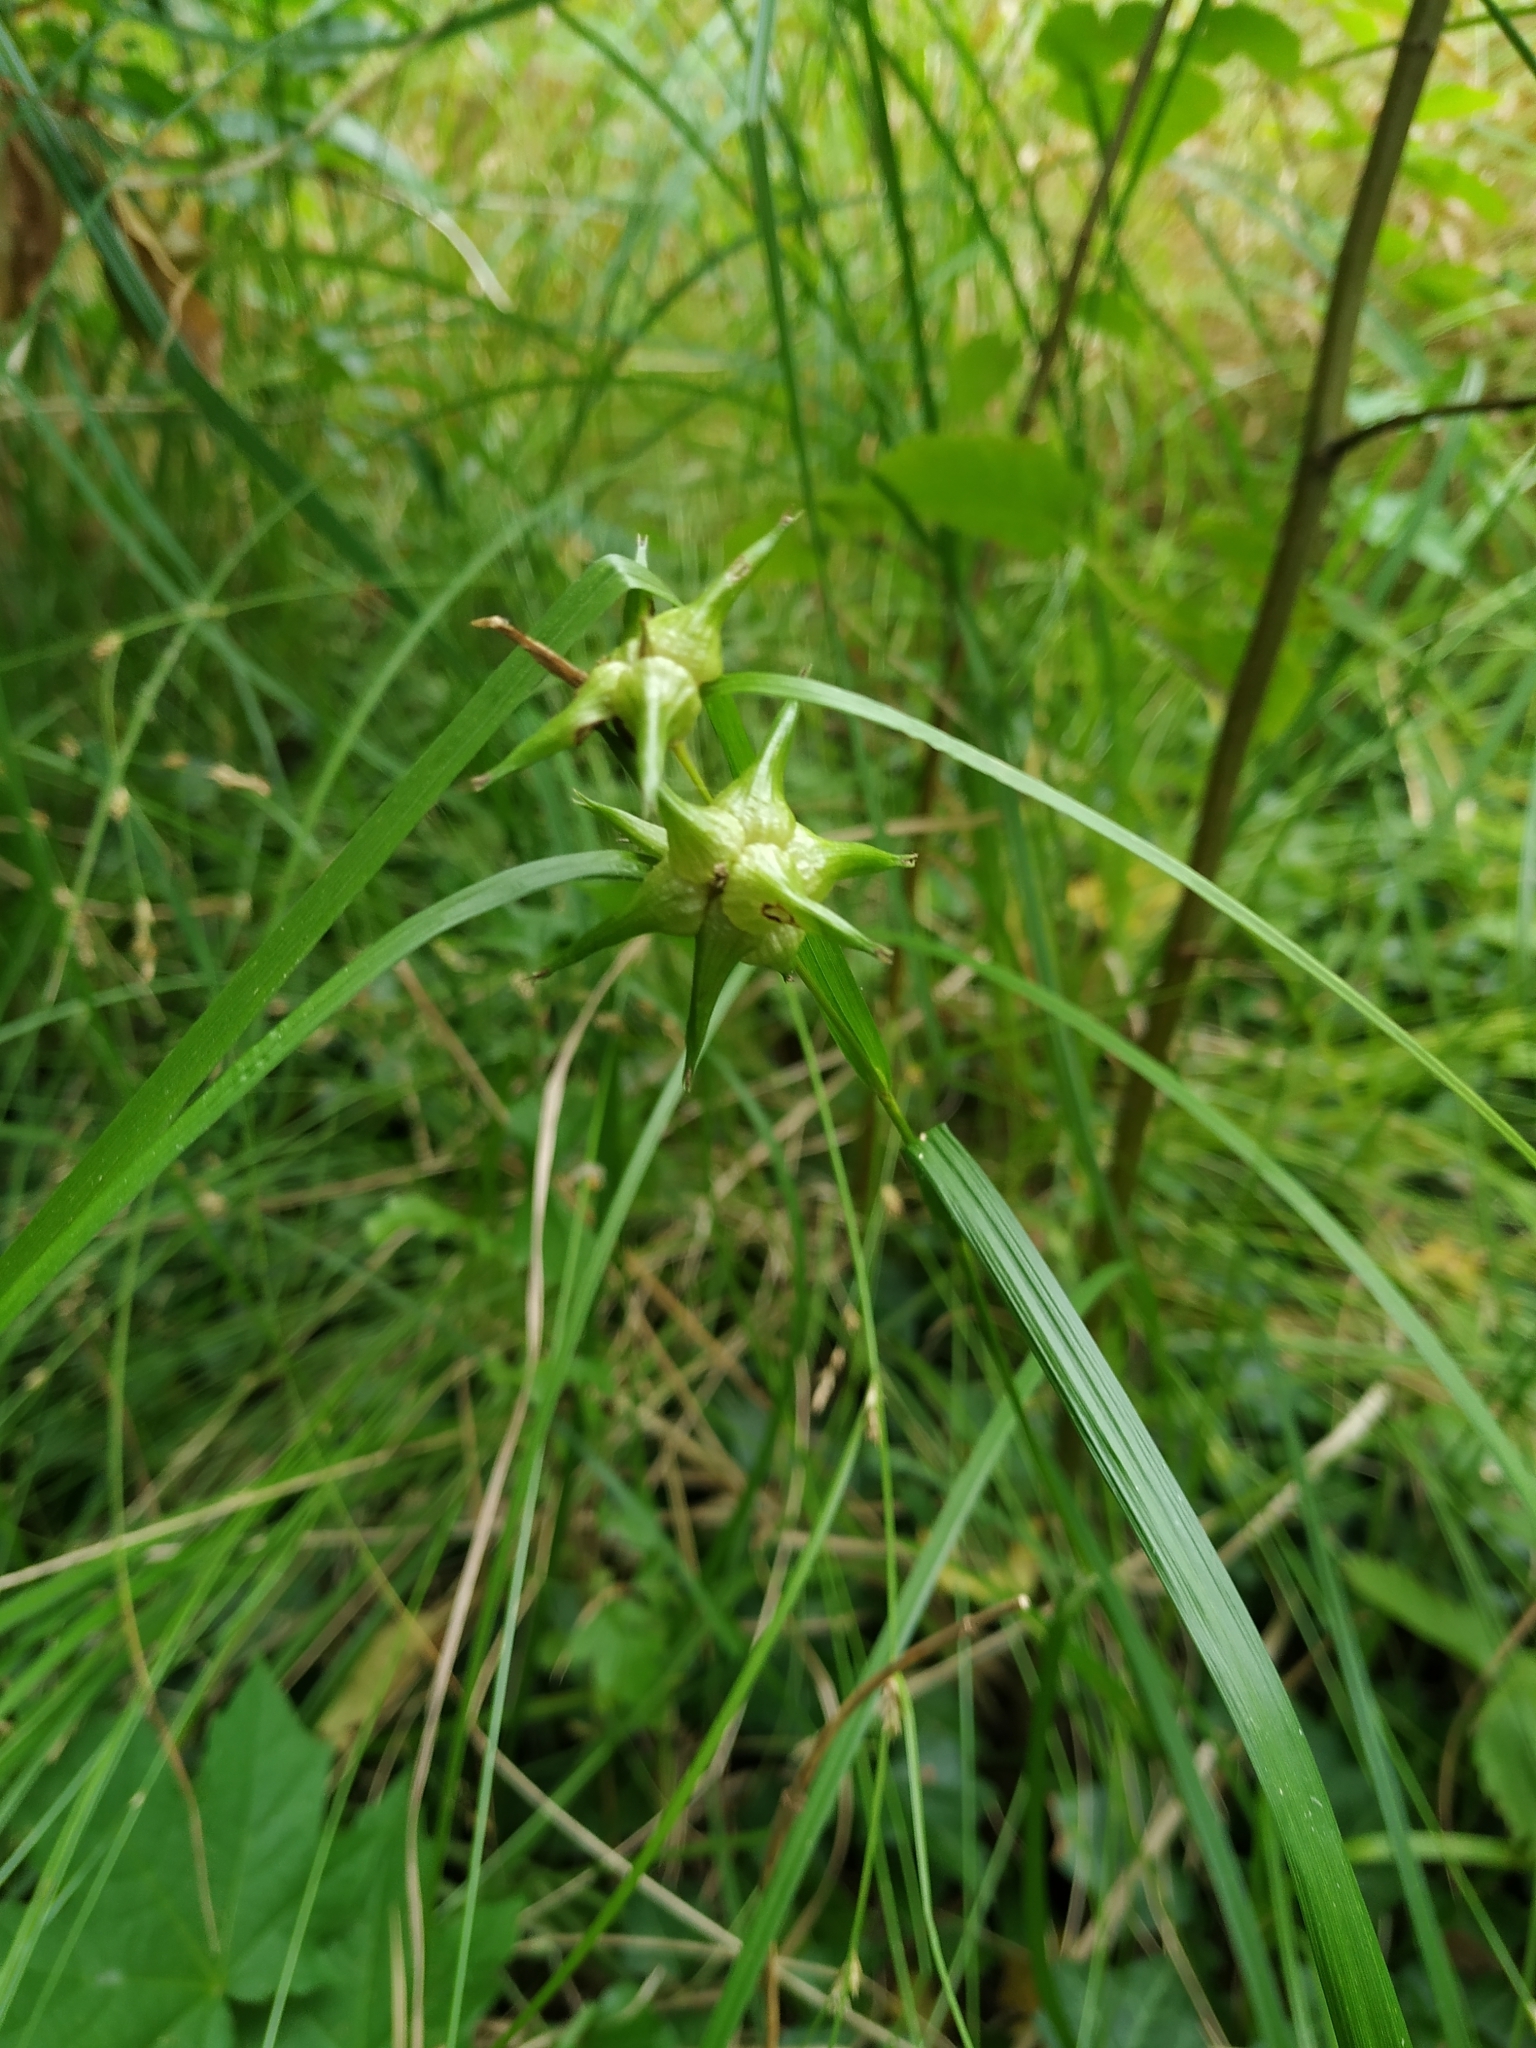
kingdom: Plantae
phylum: Tracheophyta
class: Liliopsida
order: Poales
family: Cyperaceae
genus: Carex
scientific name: Carex grayi
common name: Asa gray's sedge
